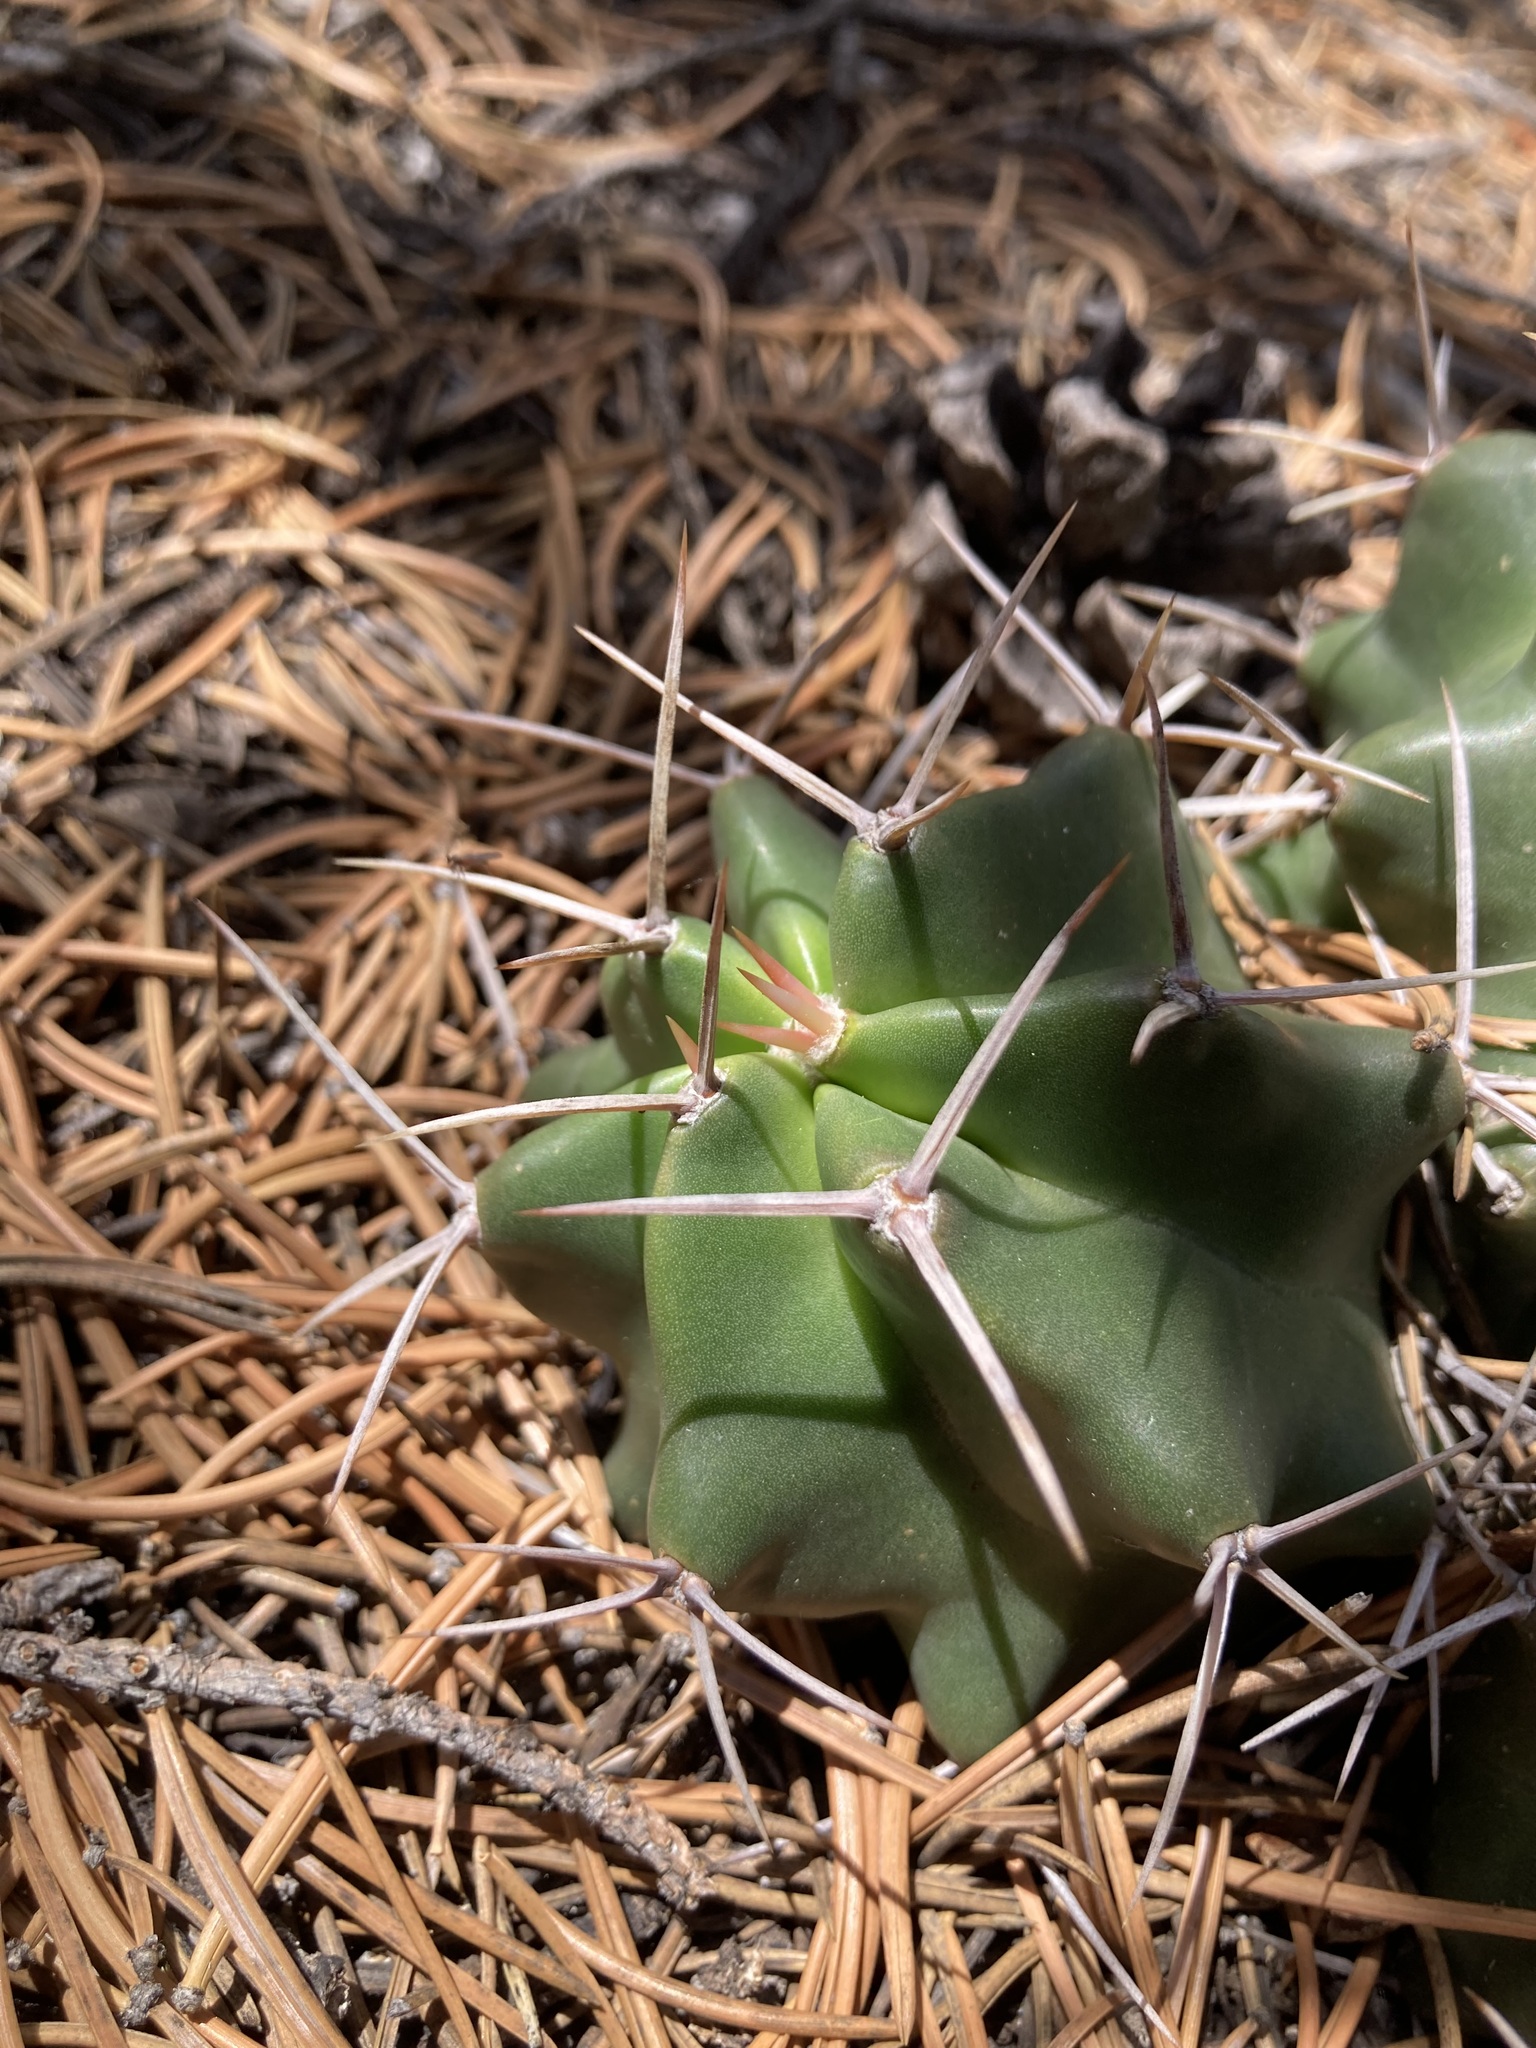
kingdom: Plantae
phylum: Tracheophyta
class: Magnoliopsida
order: Caryophyllales
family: Cactaceae
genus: Echinocereus
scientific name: Echinocereus triglochidiatus
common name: Claretcup hedgehog
